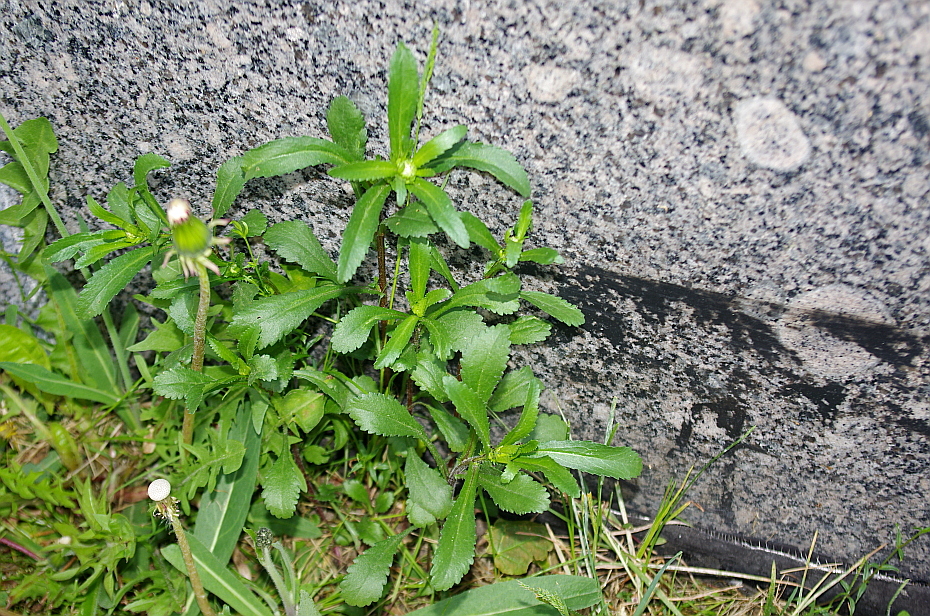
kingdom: Plantae
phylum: Tracheophyta
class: Magnoliopsida
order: Asterales
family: Asteraceae
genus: Leucanthemum
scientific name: Leucanthemum vulgare
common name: Oxeye daisy
